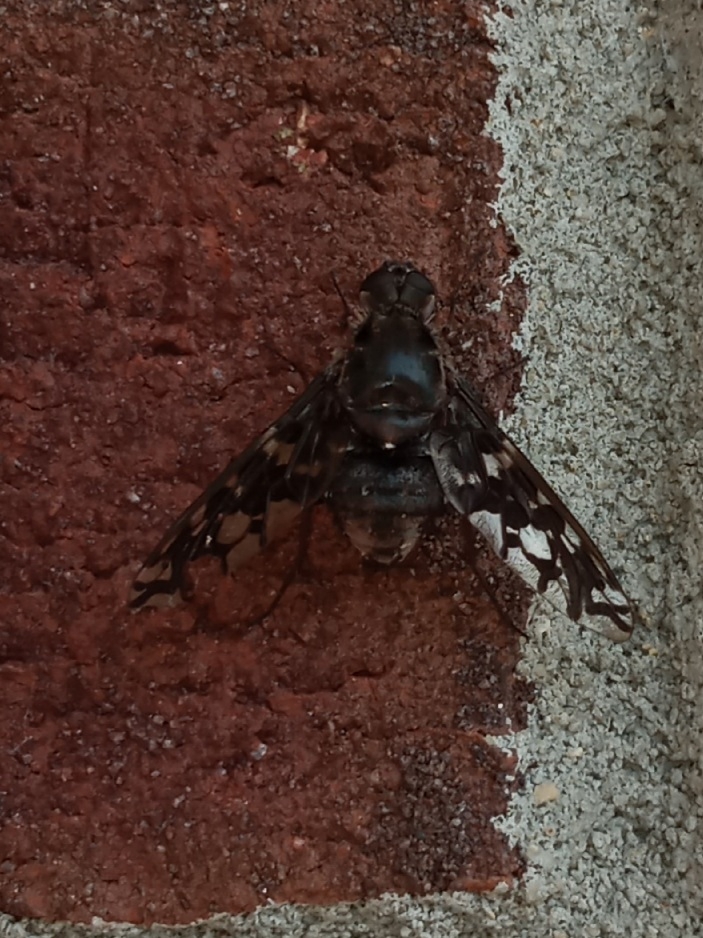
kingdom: Animalia
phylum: Arthropoda
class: Insecta
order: Diptera
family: Bombyliidae
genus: Xenox
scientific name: Xenox tigrinus
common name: Tiger bee fly
